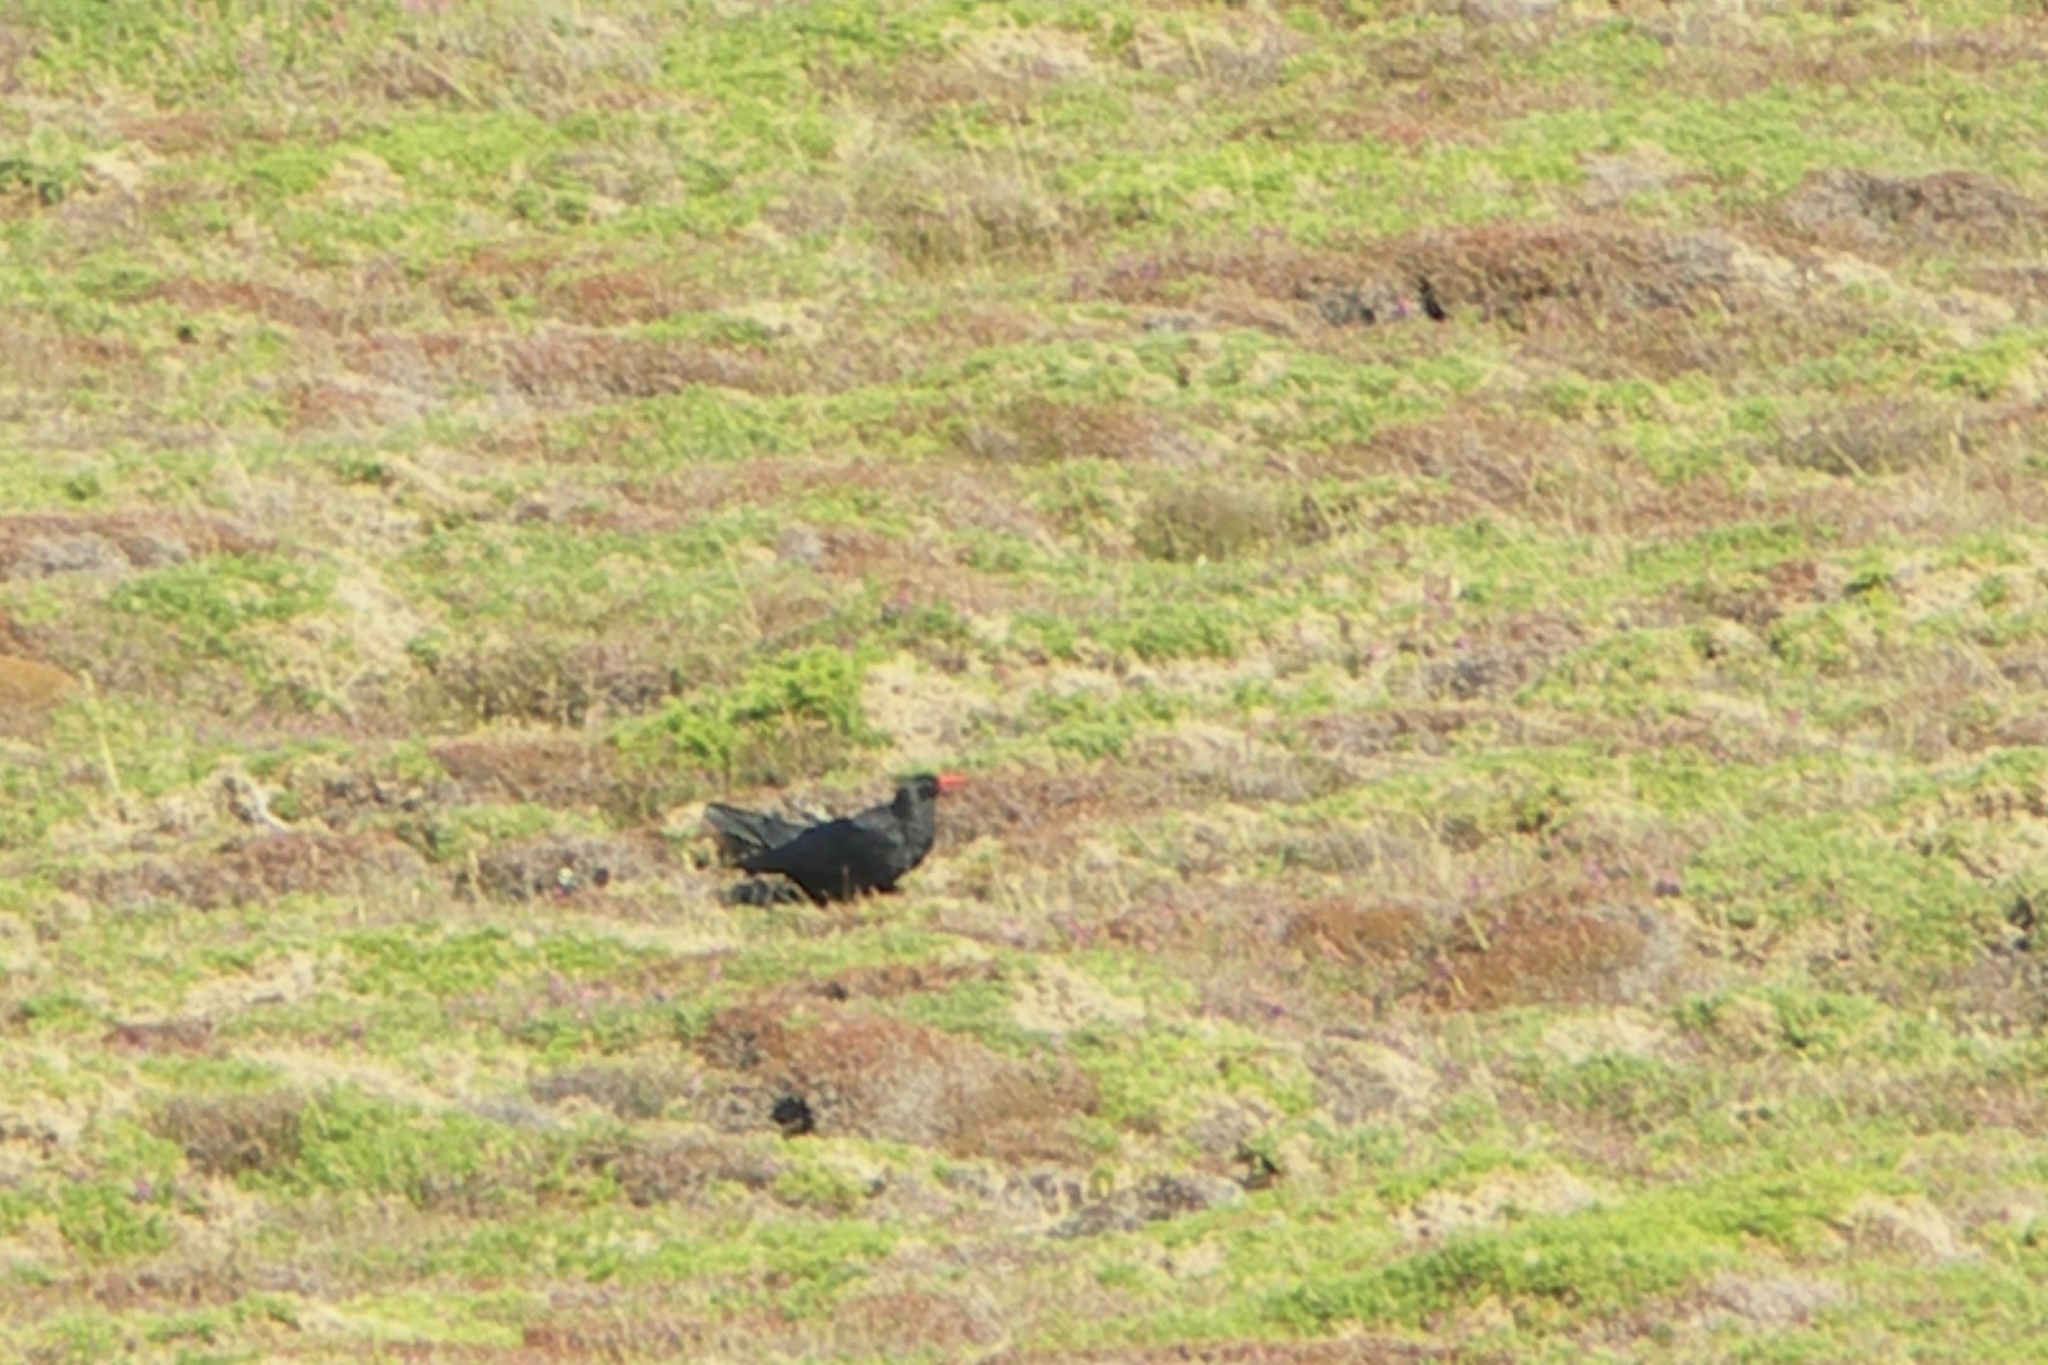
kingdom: Animalia
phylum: Chordata
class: Aves
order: Passeriformes
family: Corvidae
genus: Pyrrhocorax
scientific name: Pyrrhocorax pyrrhocorax
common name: Red-billed chough
